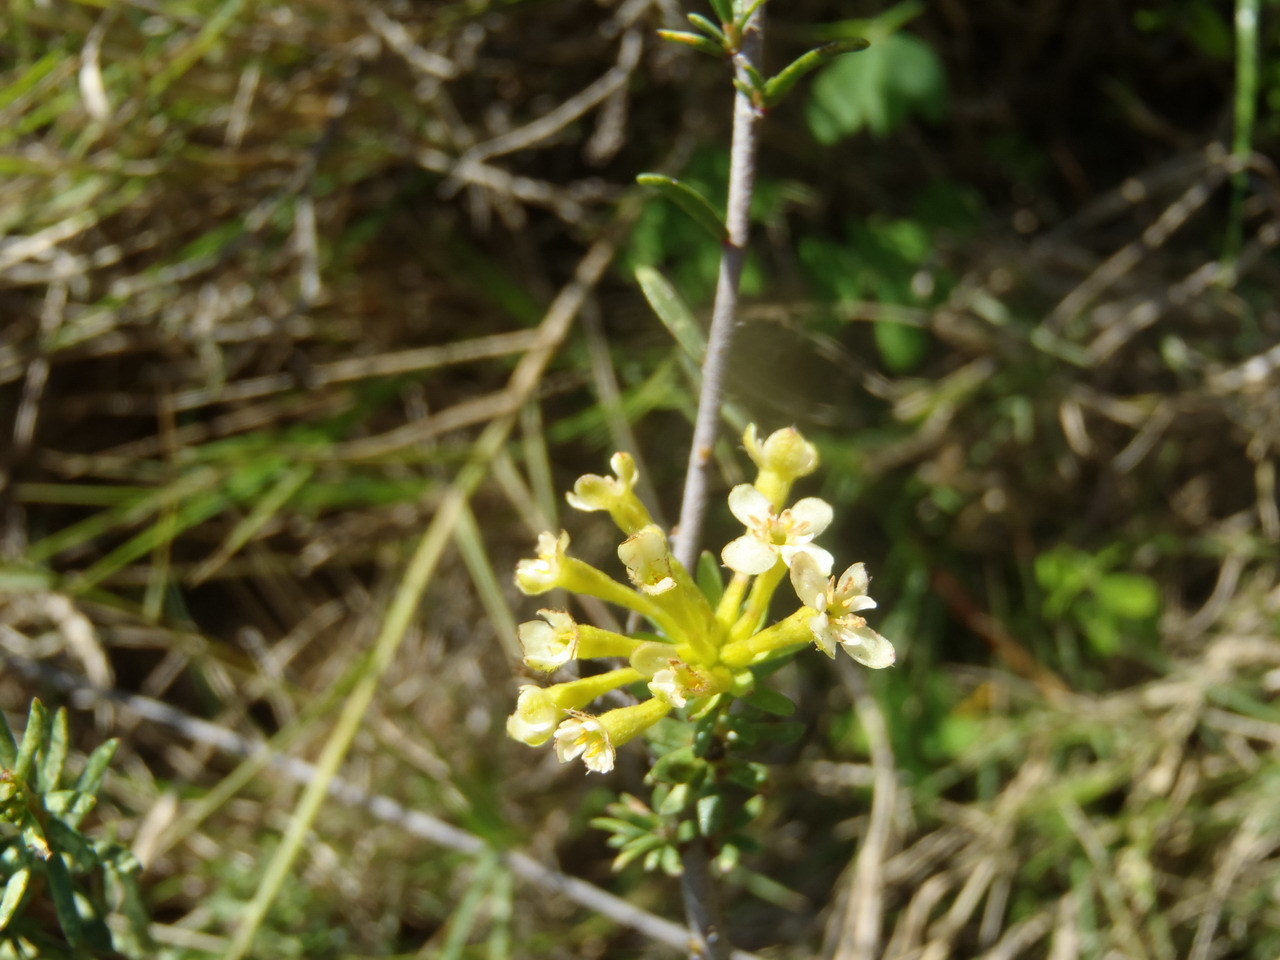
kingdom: Plantae
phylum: Tracheophyta
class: Magnoliopsida
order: Malvales
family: Thymelaeaceae
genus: Gnidia
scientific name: Gnidia squarrosa
